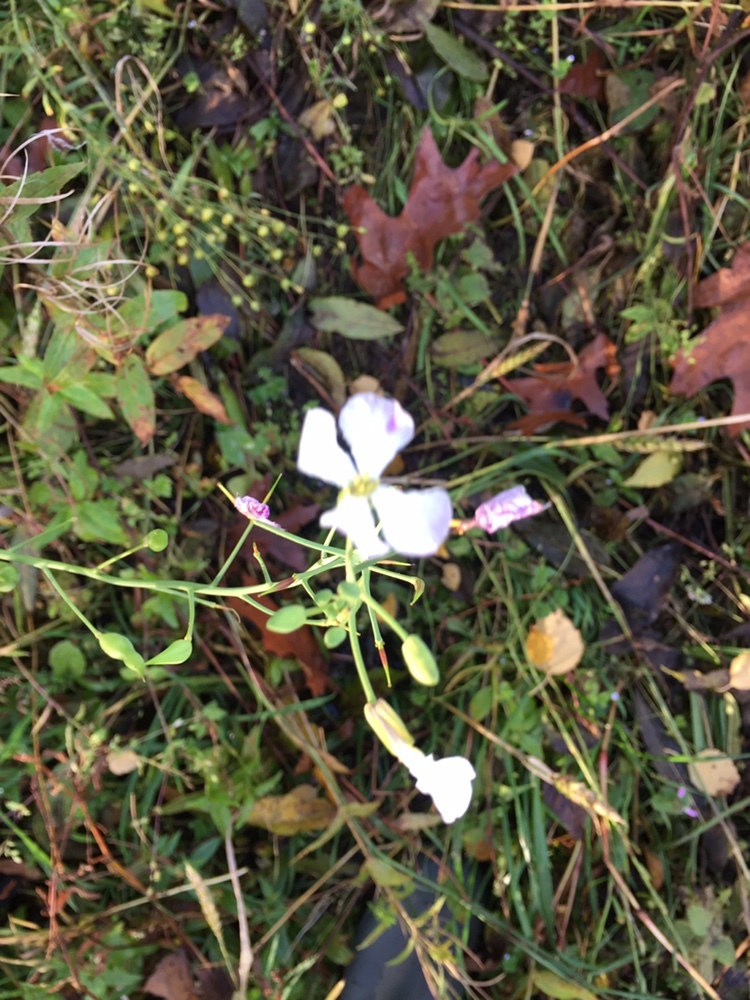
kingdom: Plantae
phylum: Tracheophyta
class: Magnoliopsida
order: Brassicales
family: Brassicaceae
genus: Raphanus
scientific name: Raphanus sativus
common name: Cultivated radish
